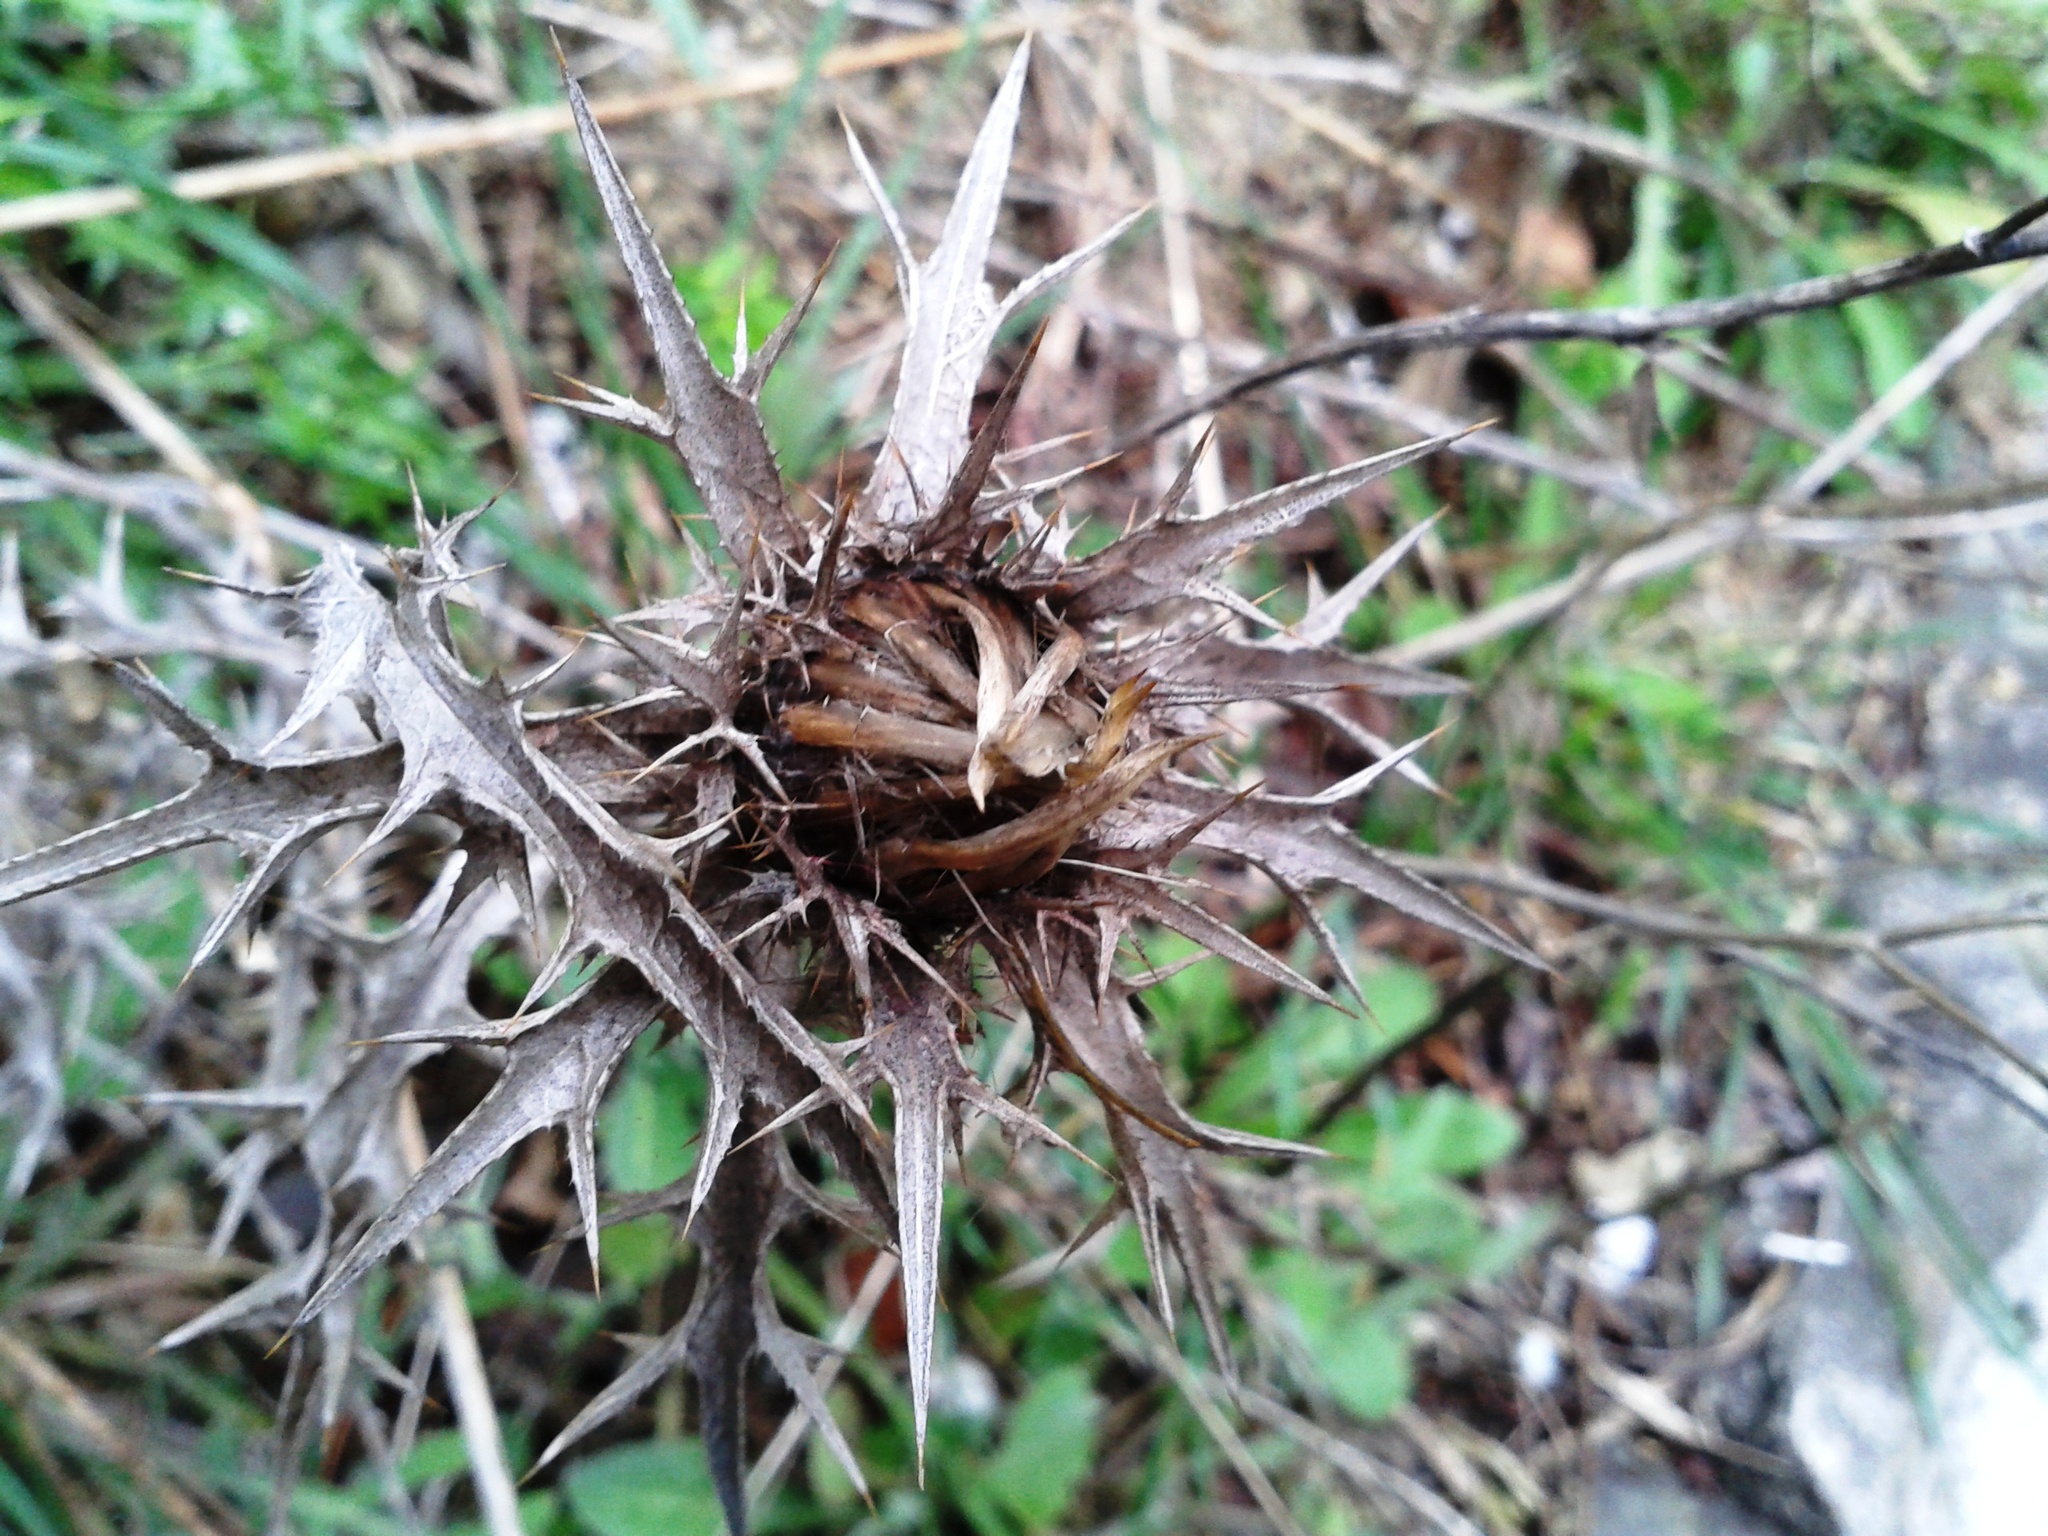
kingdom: Plantae
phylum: Tracheophyta
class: Magnoliopsida
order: Asterales
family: Asteraceae
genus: Carlina
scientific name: Carlina corymbosa
